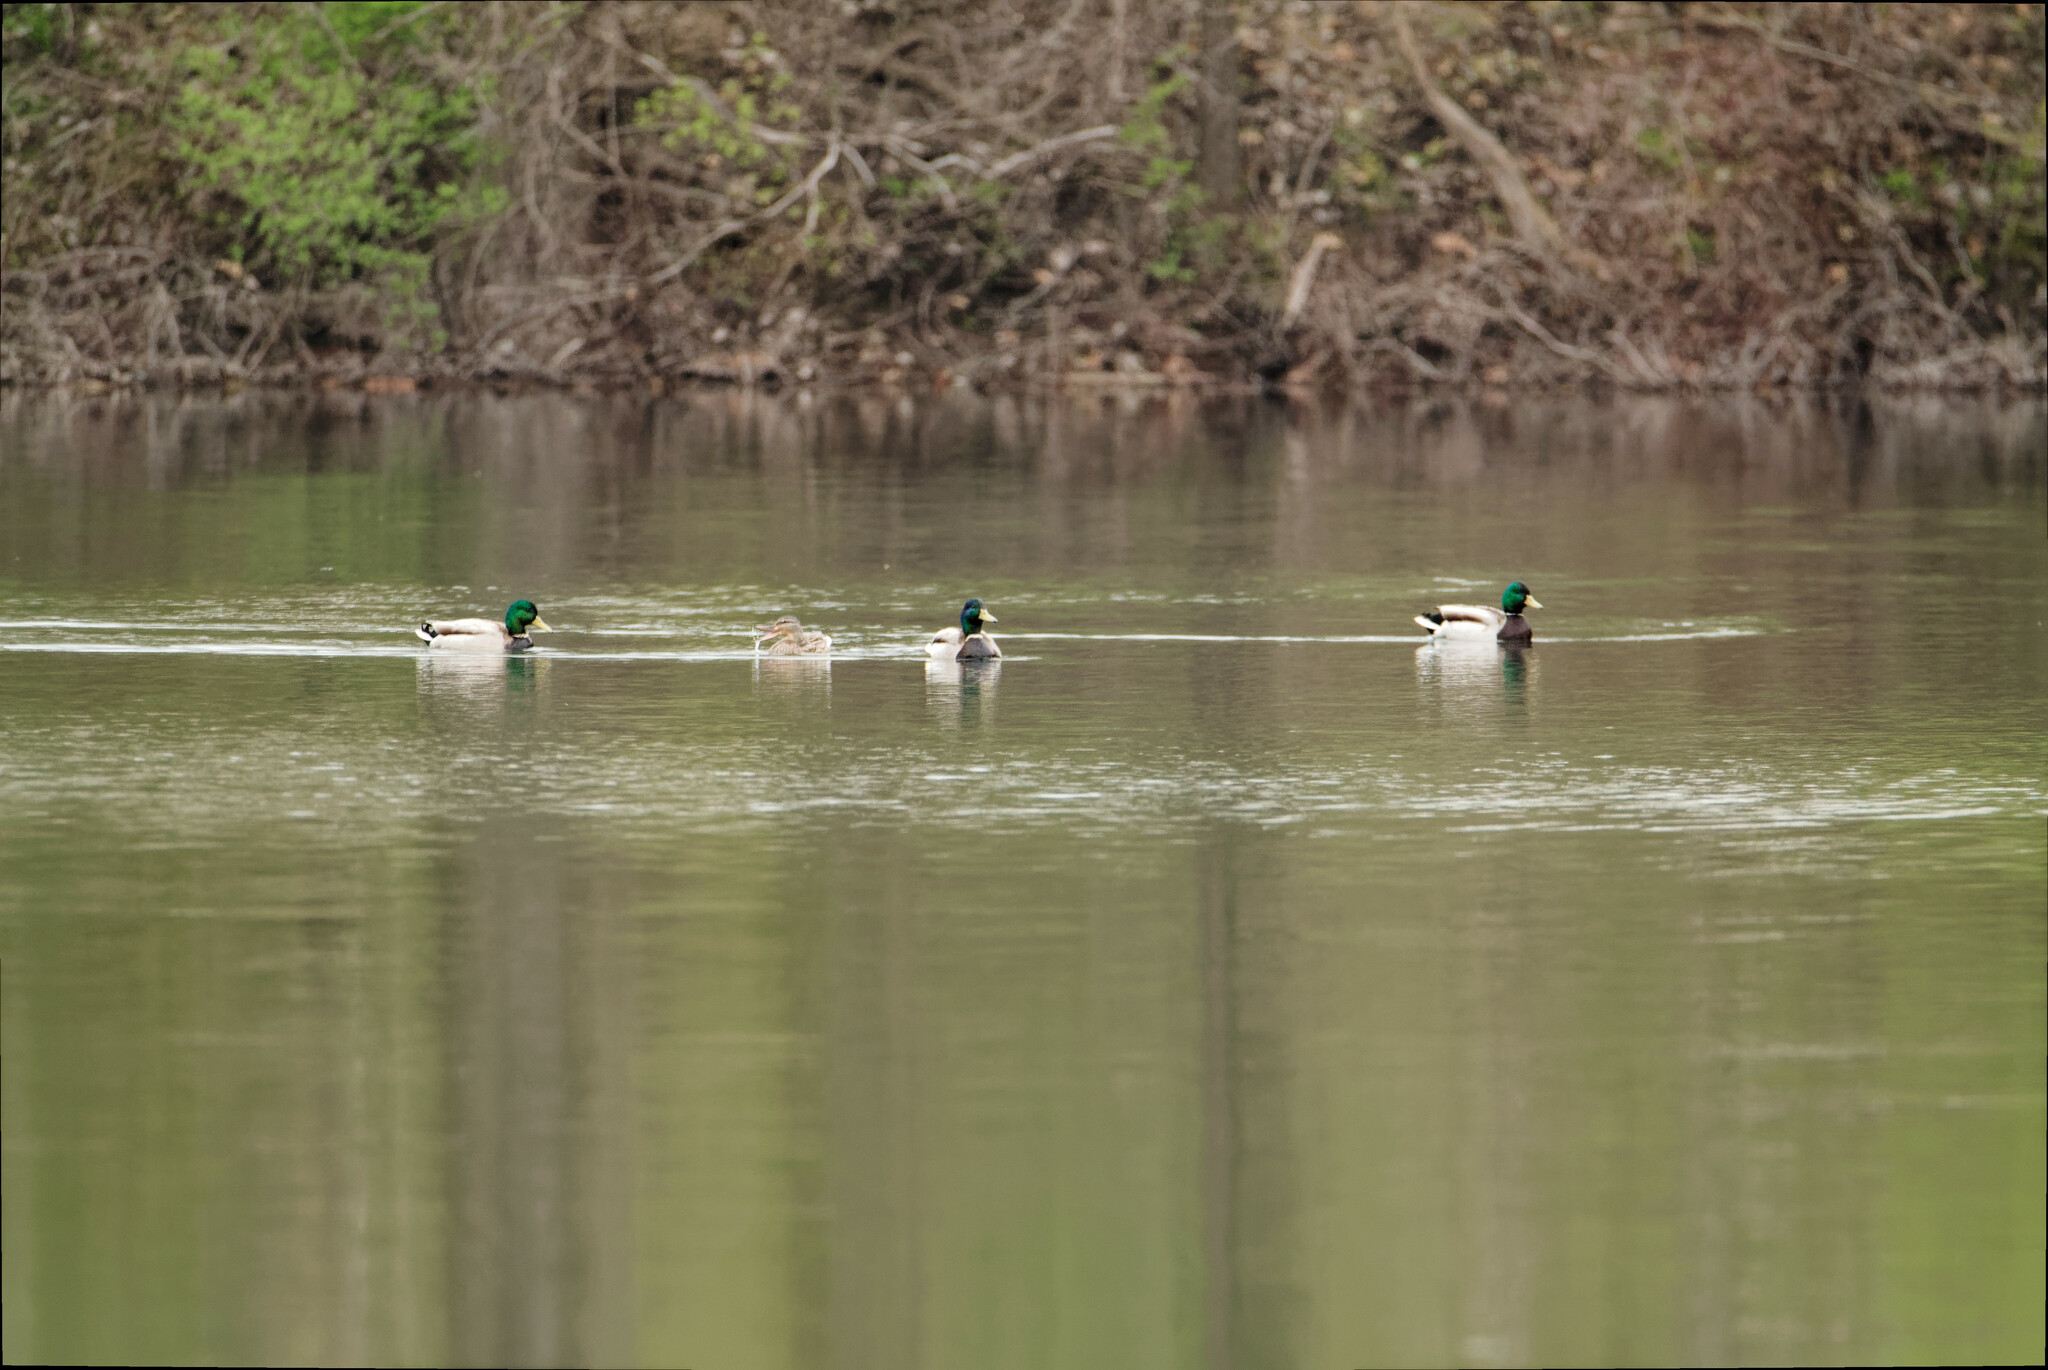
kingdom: Animalia
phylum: Chordata
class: Aves
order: Anseriformes
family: Anatidae
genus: Anas
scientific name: Anas platyrhynchos
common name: Mallard
